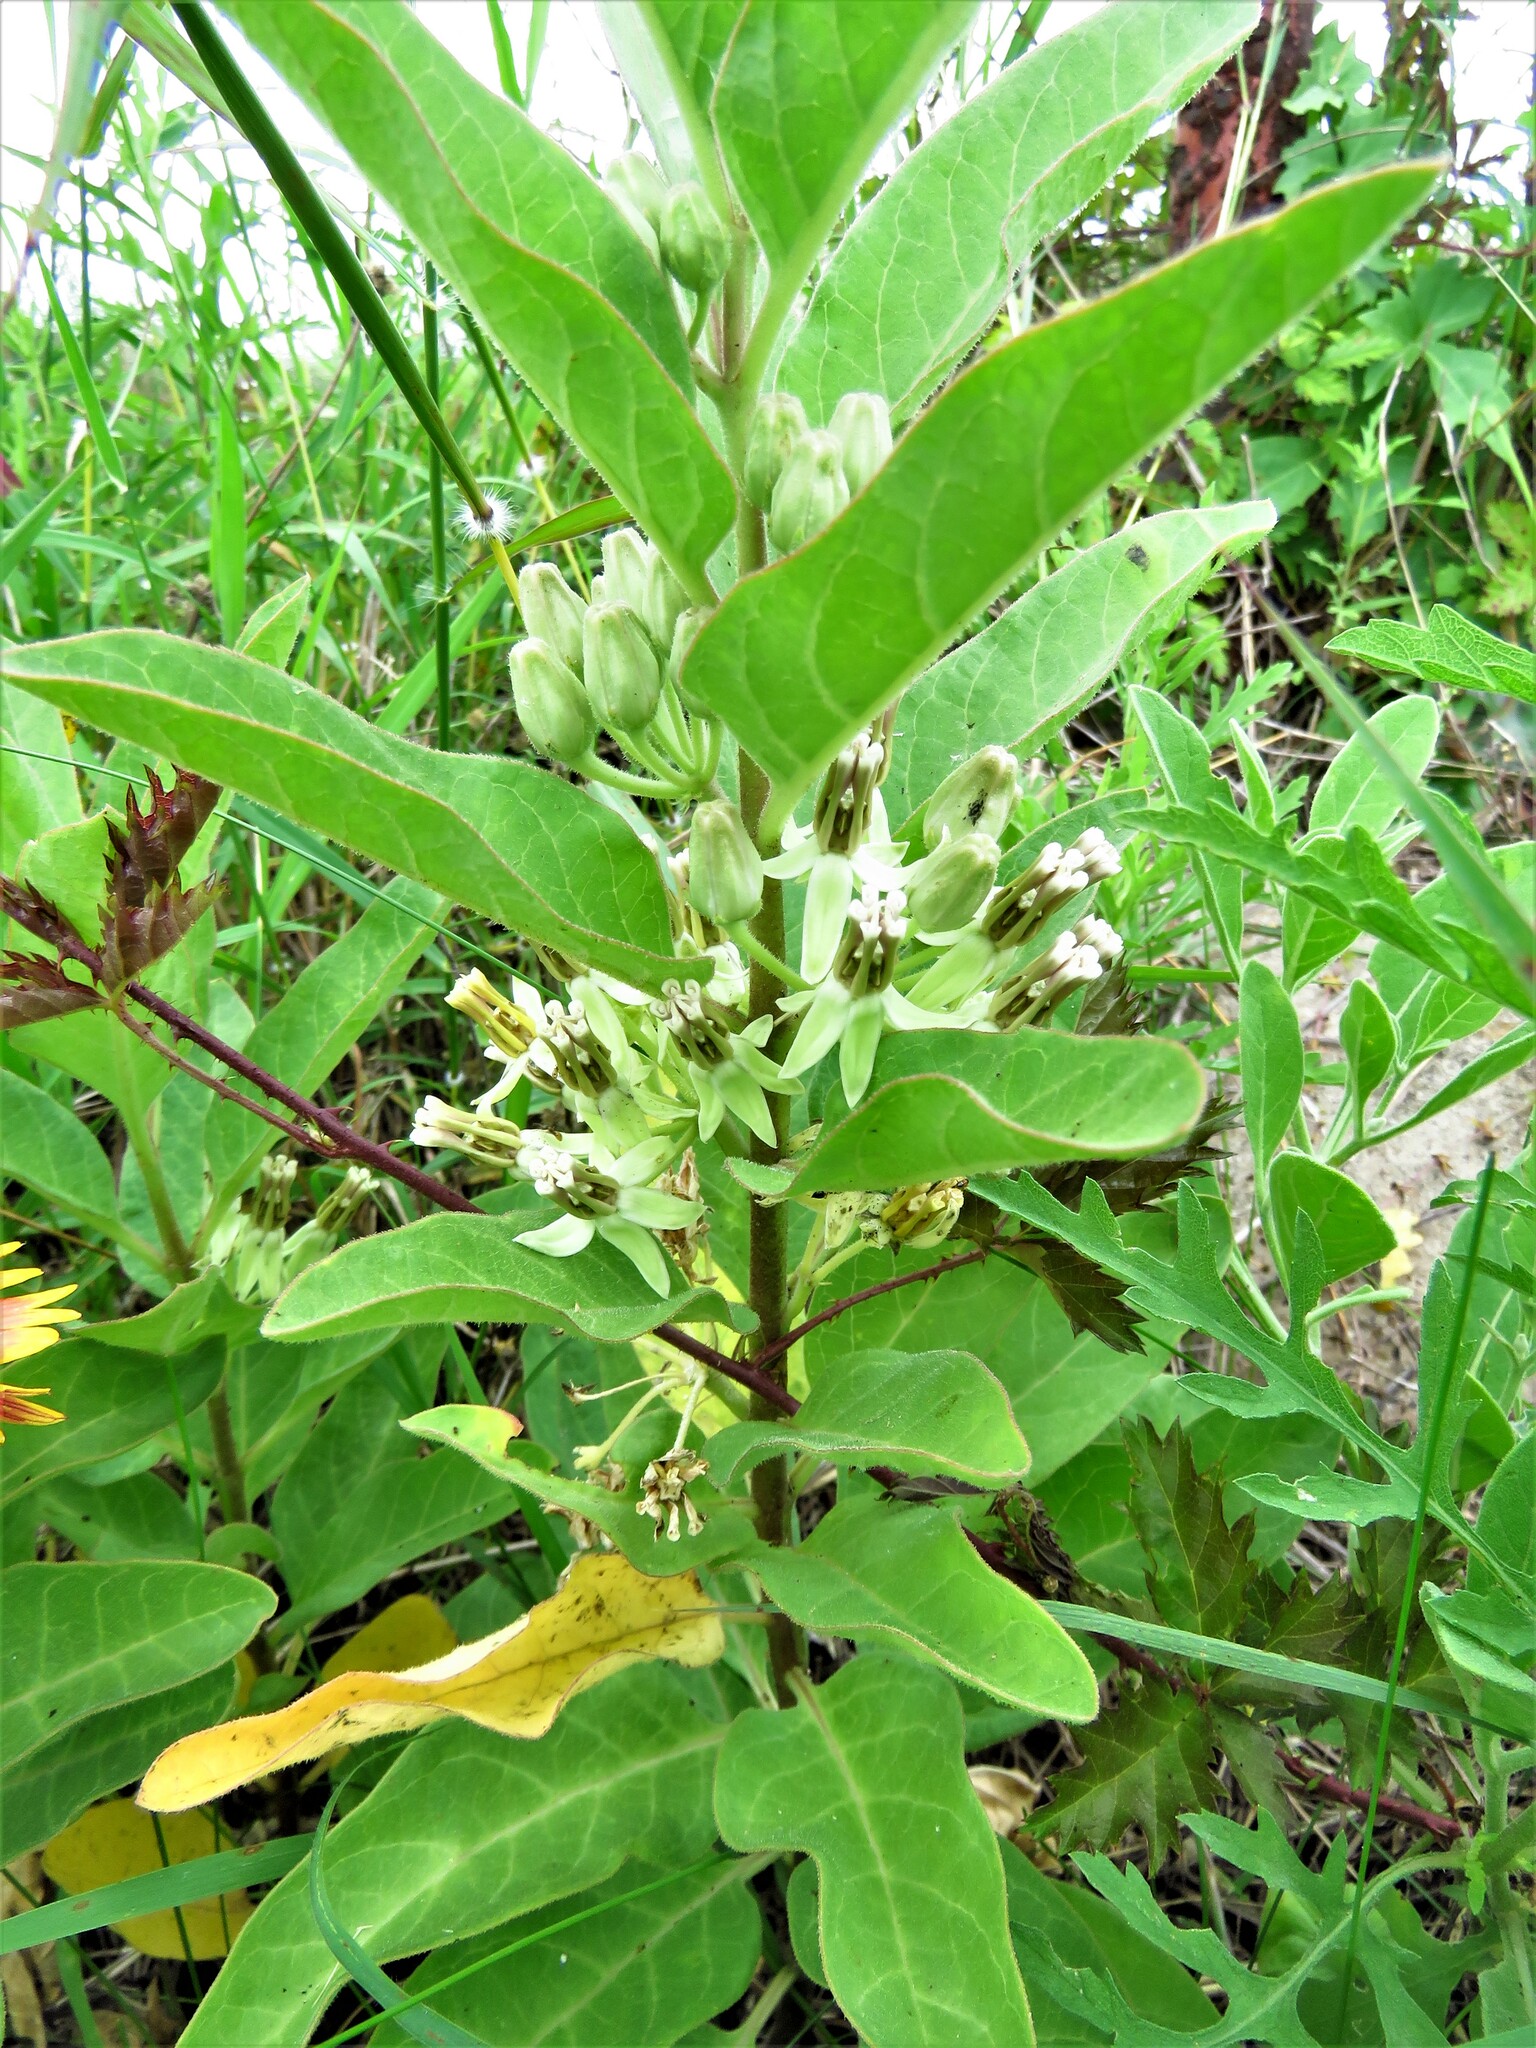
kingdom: Plantae
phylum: Tracheophyta
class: Magnoliopsida
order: Gentianales
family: Apocynaceae
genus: Asclepias
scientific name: Asclepias oenotheroides
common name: Zizotes milkweed
